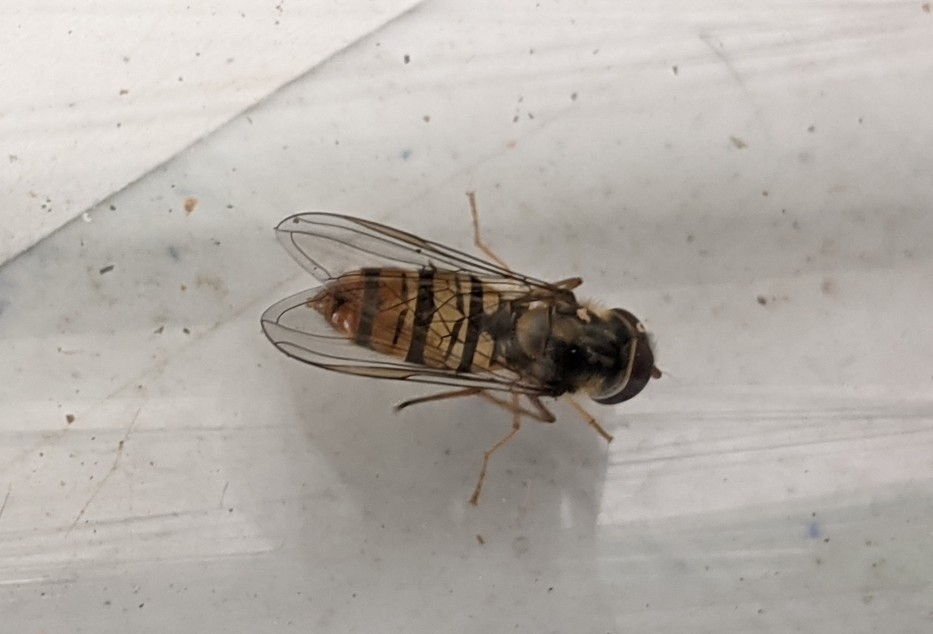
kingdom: Animalia
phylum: Arthropoda
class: Insecta
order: Diptera
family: Syrphidae
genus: Episyrphus
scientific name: Episyrphus balteatus
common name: Marmalade hoverfly
